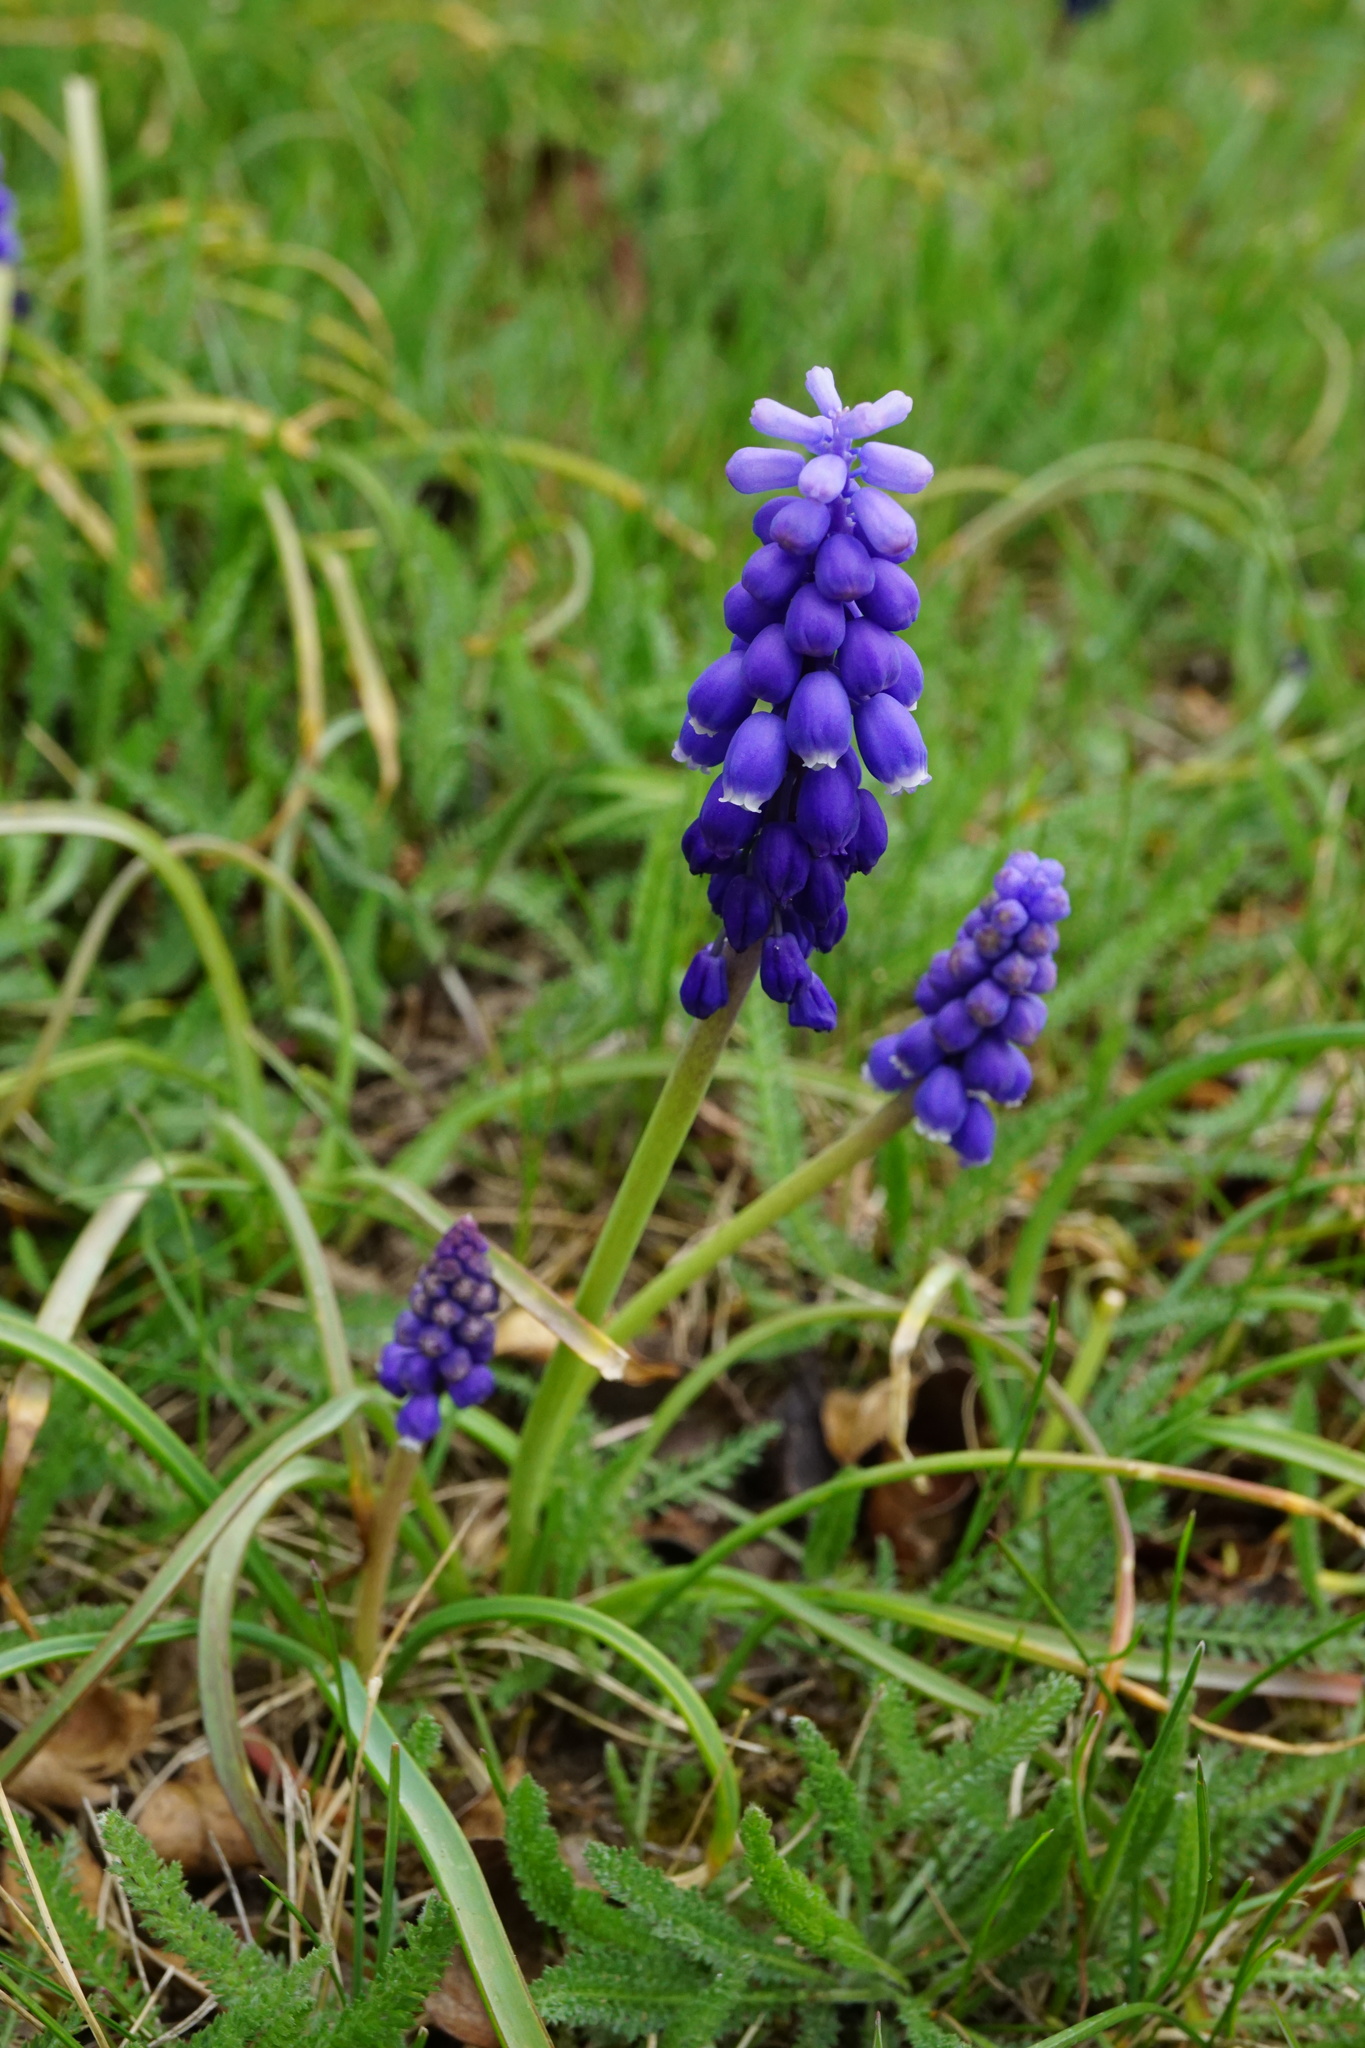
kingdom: Plantae
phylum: Tracheophyta
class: Liliopsida
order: Asparagales
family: Asparagaceae
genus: Muscari
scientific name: Muscari armeniacum
